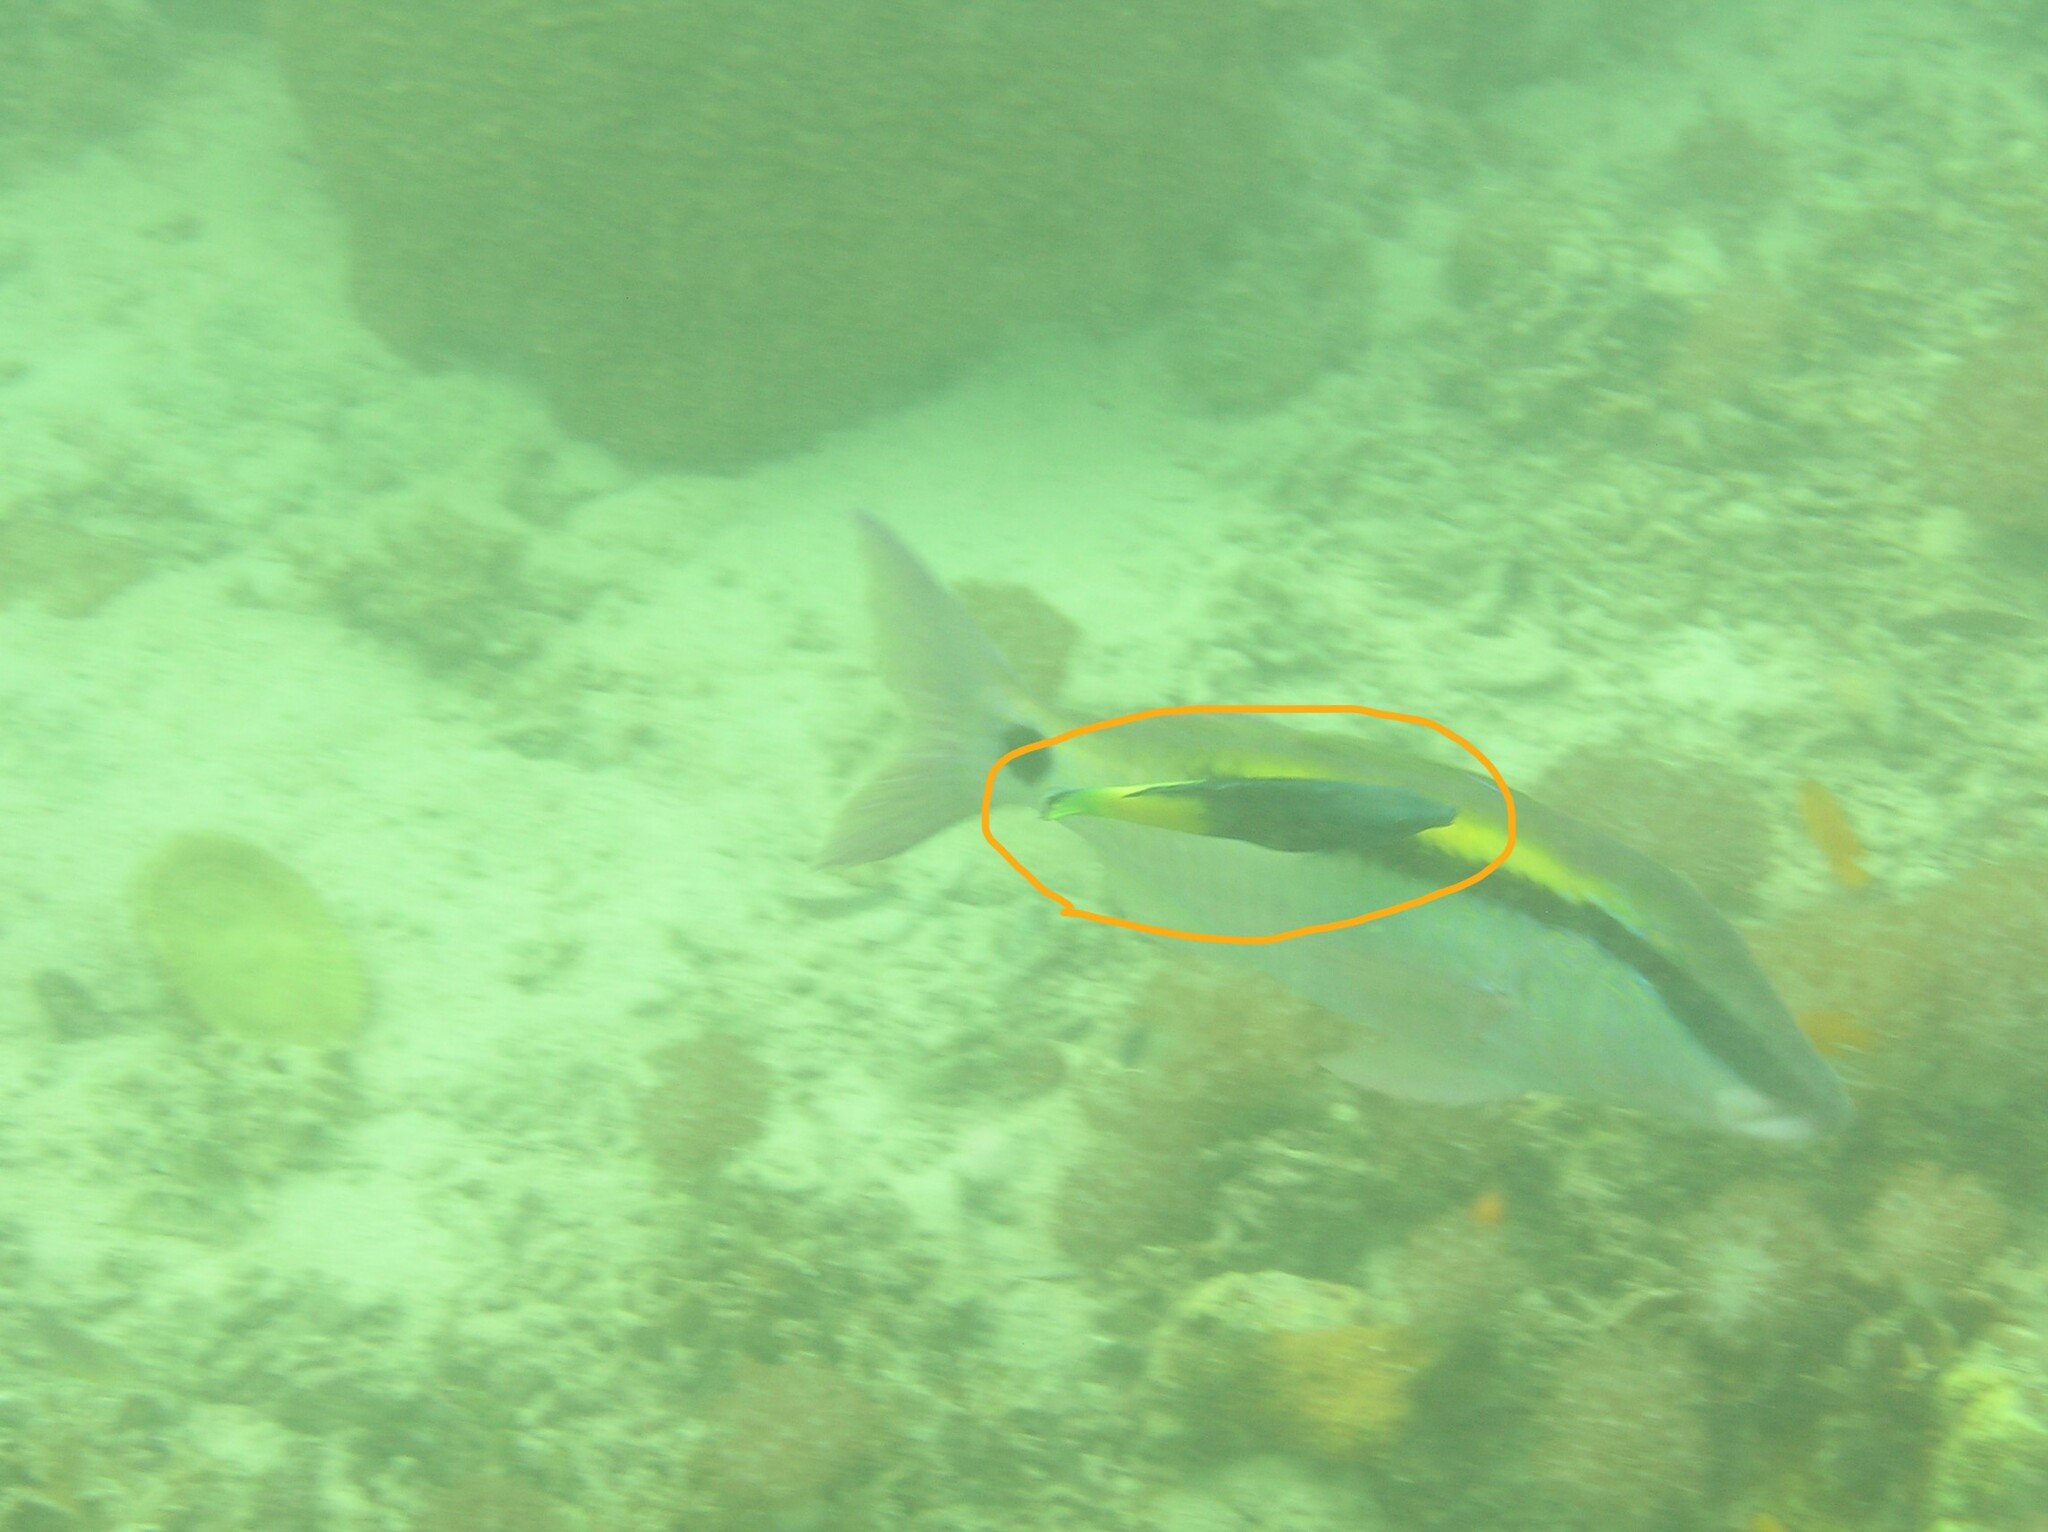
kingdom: Animalia
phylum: Chordata
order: Perciformes
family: Labridae
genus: Labroides
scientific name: Labroides bicolor
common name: Bicolor cleaner wrasse
